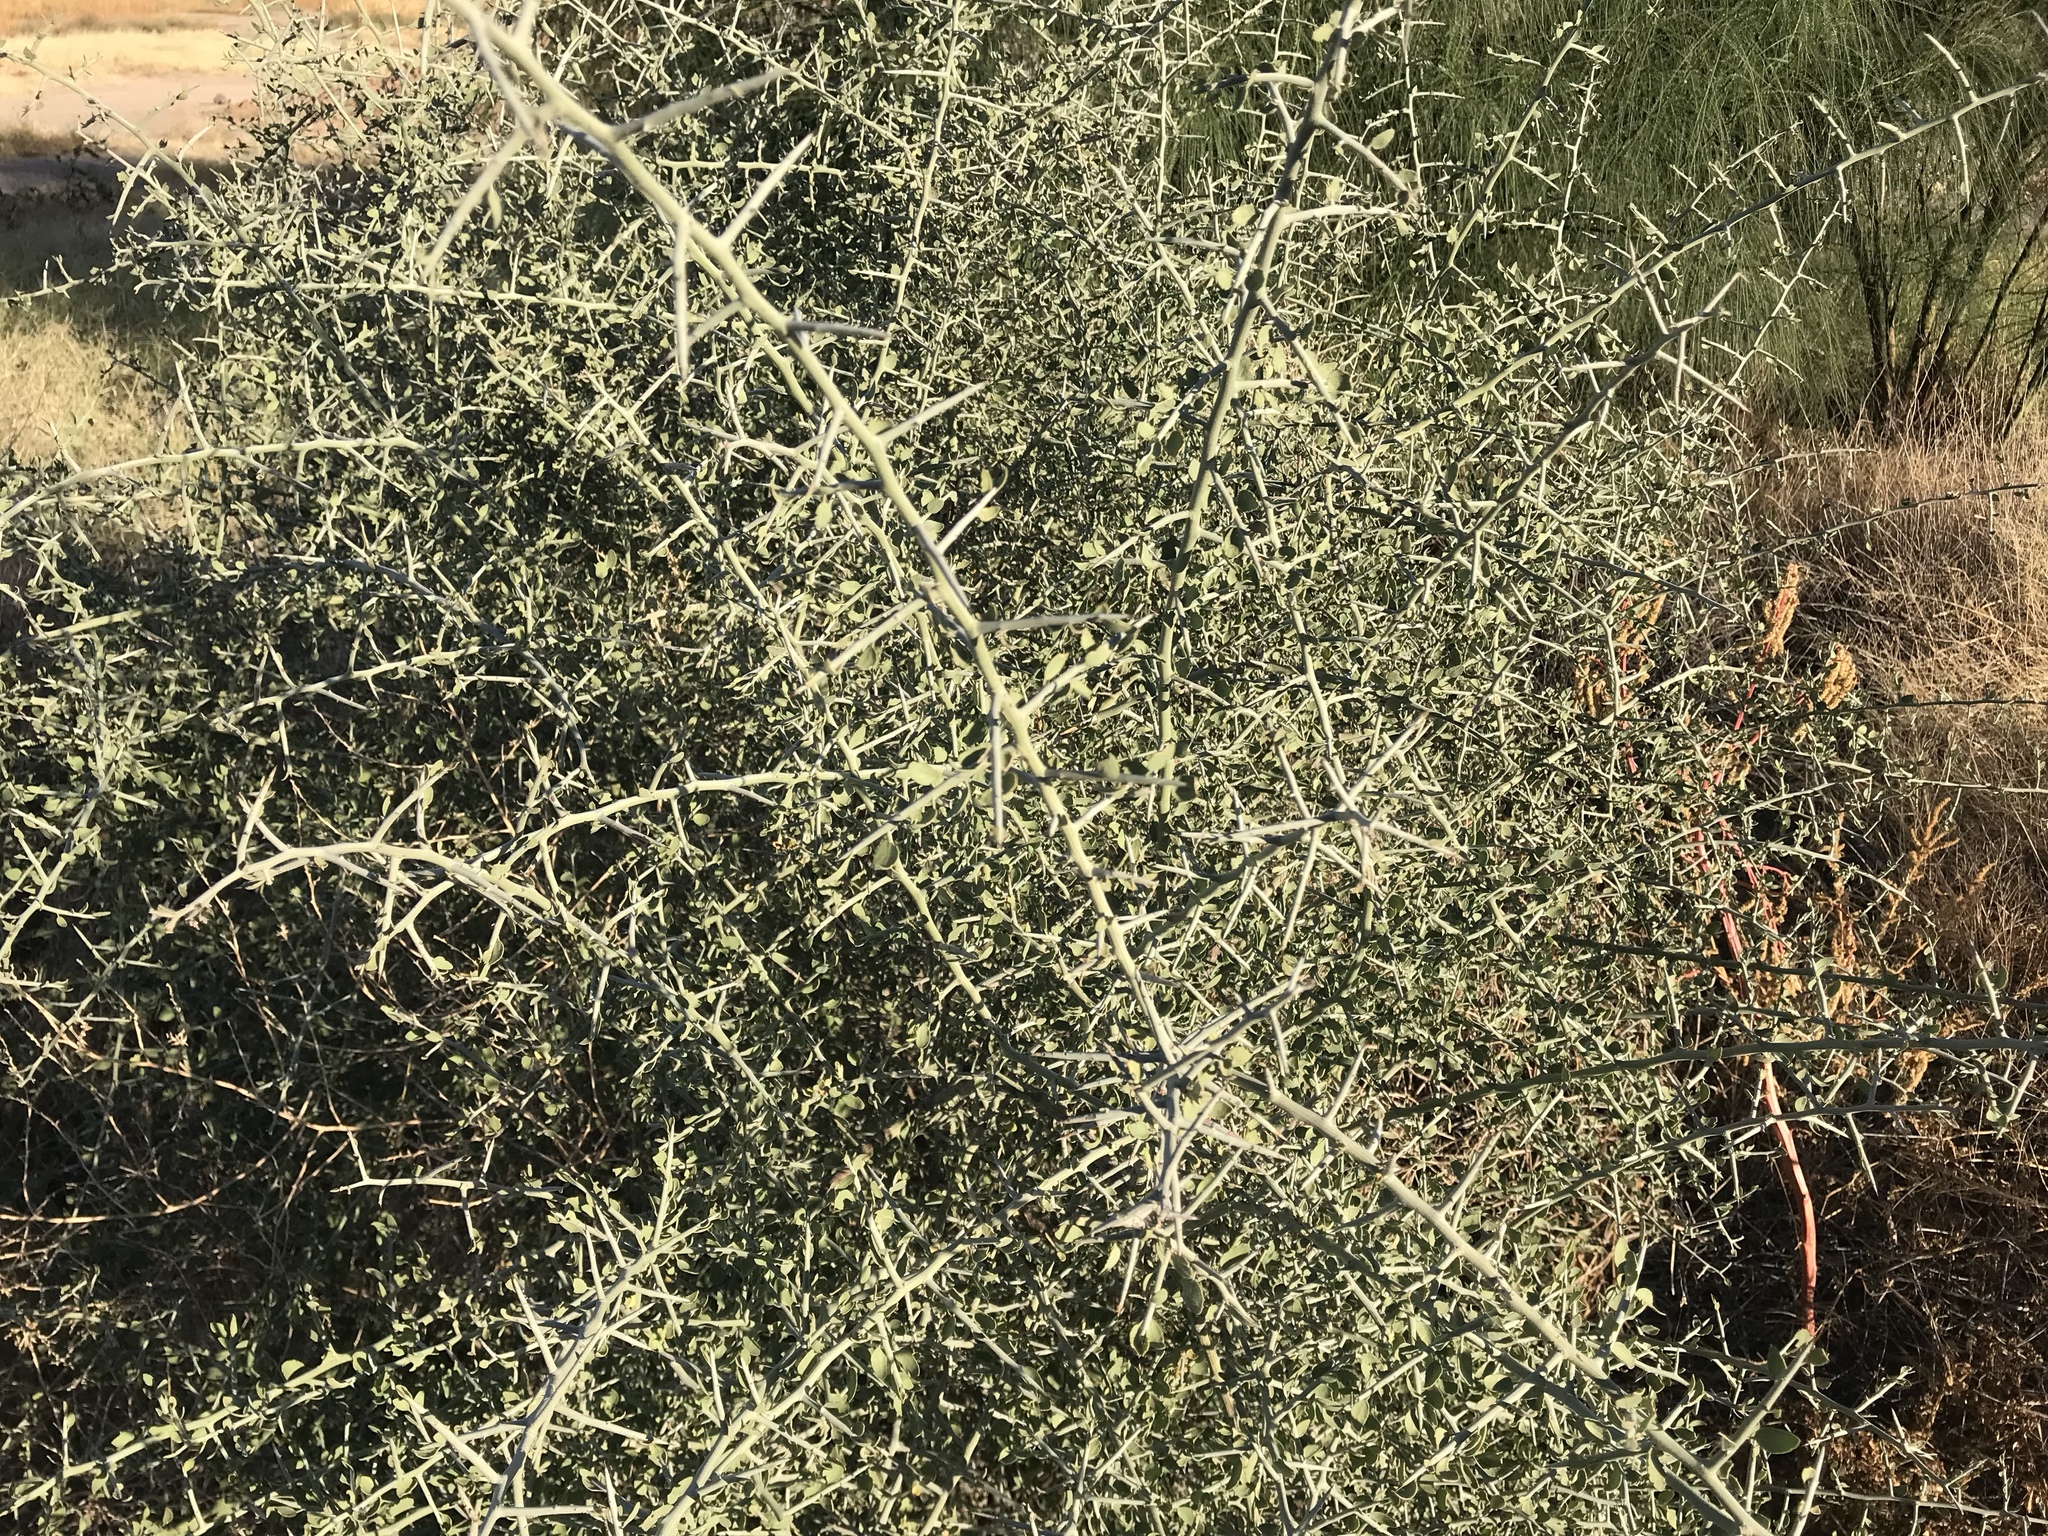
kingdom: Plantae
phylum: Tracheophyta
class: Magnoliopsida
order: Rosales
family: Rhamnaceae
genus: Sarcomphalus
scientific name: Sarcomphalus obtusifolius
